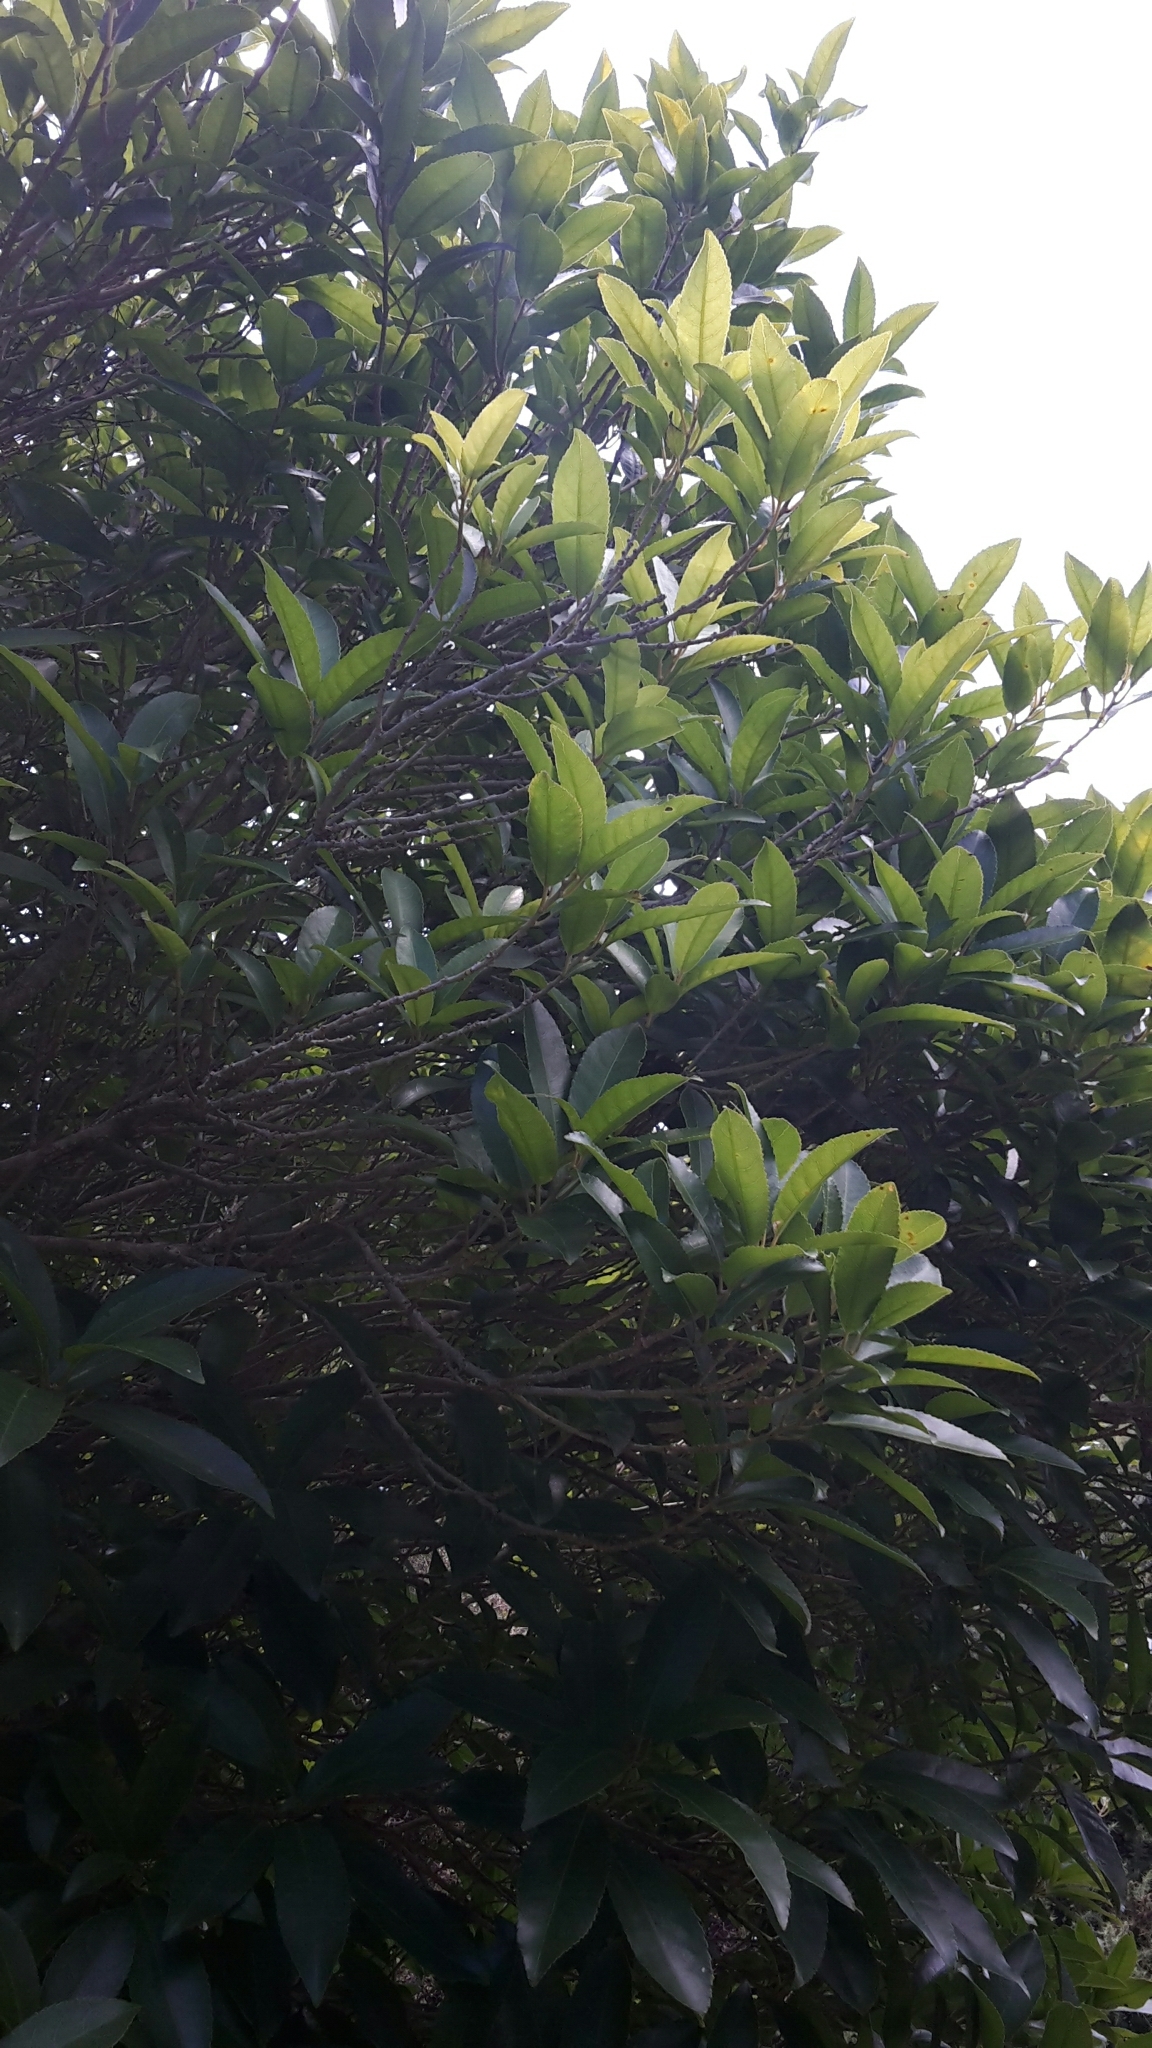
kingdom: Plantae
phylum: Tracheophyta
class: Magnoliopsida
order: Malpighiales
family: Violaceae
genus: Melicytus
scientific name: Melicytus ramiflorus
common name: Mahoe
